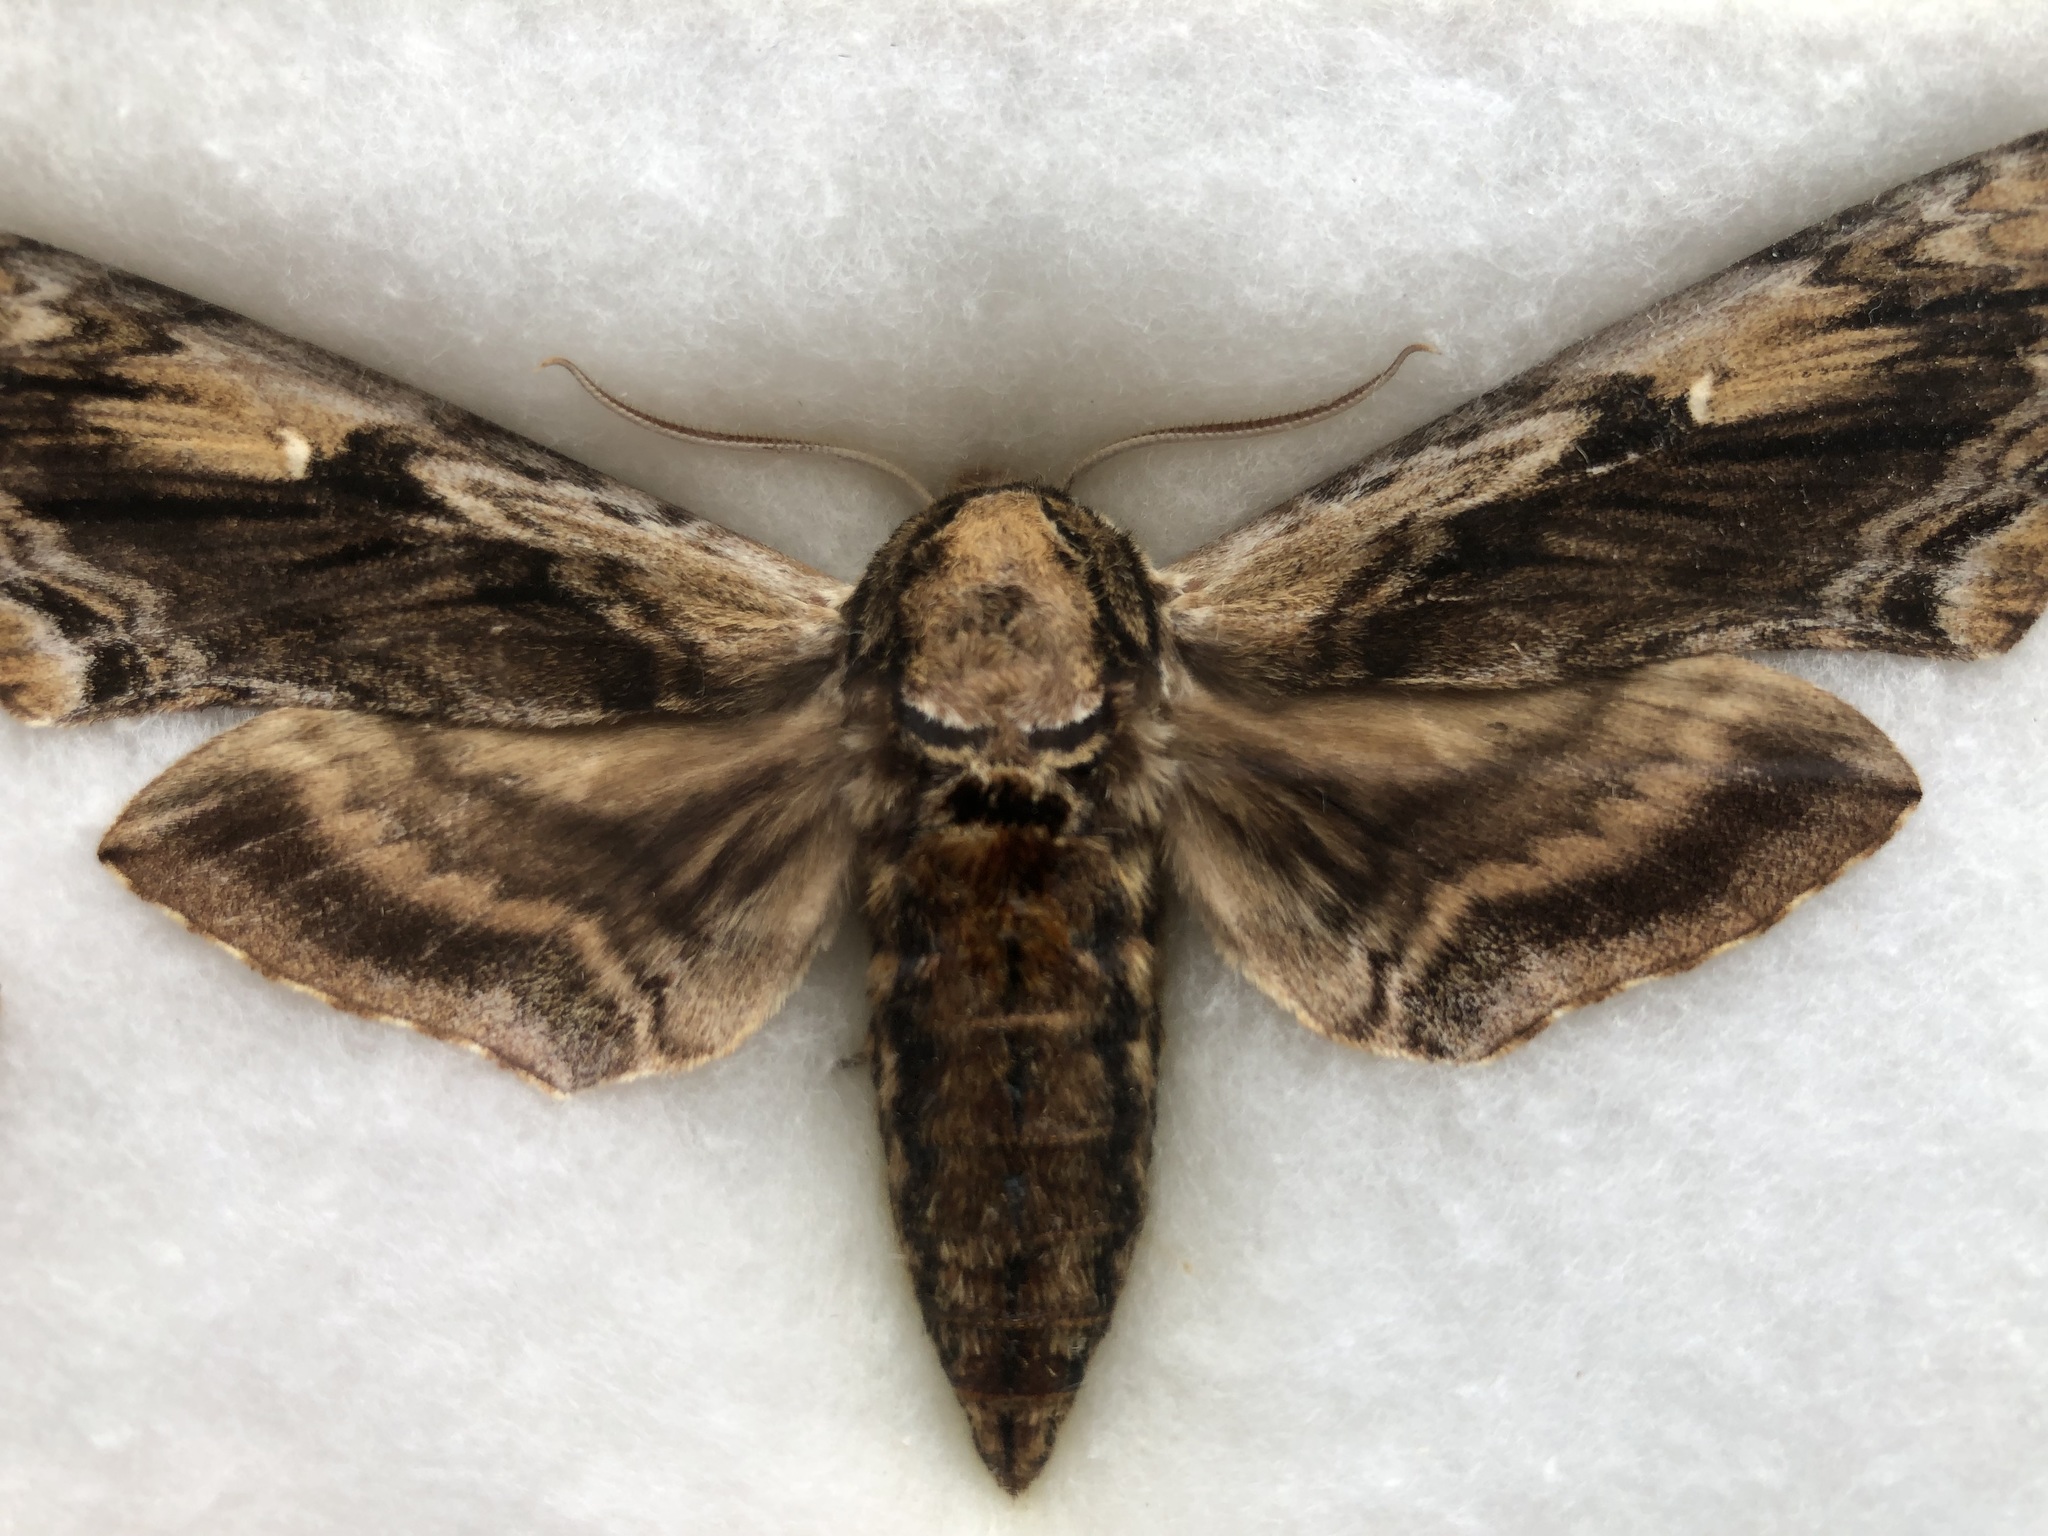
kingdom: Animalia
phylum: Arthropoda
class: Insecta
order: Lepidoptera
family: Sphingidae
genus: Ceratomia
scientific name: Ceratomia amyntor
